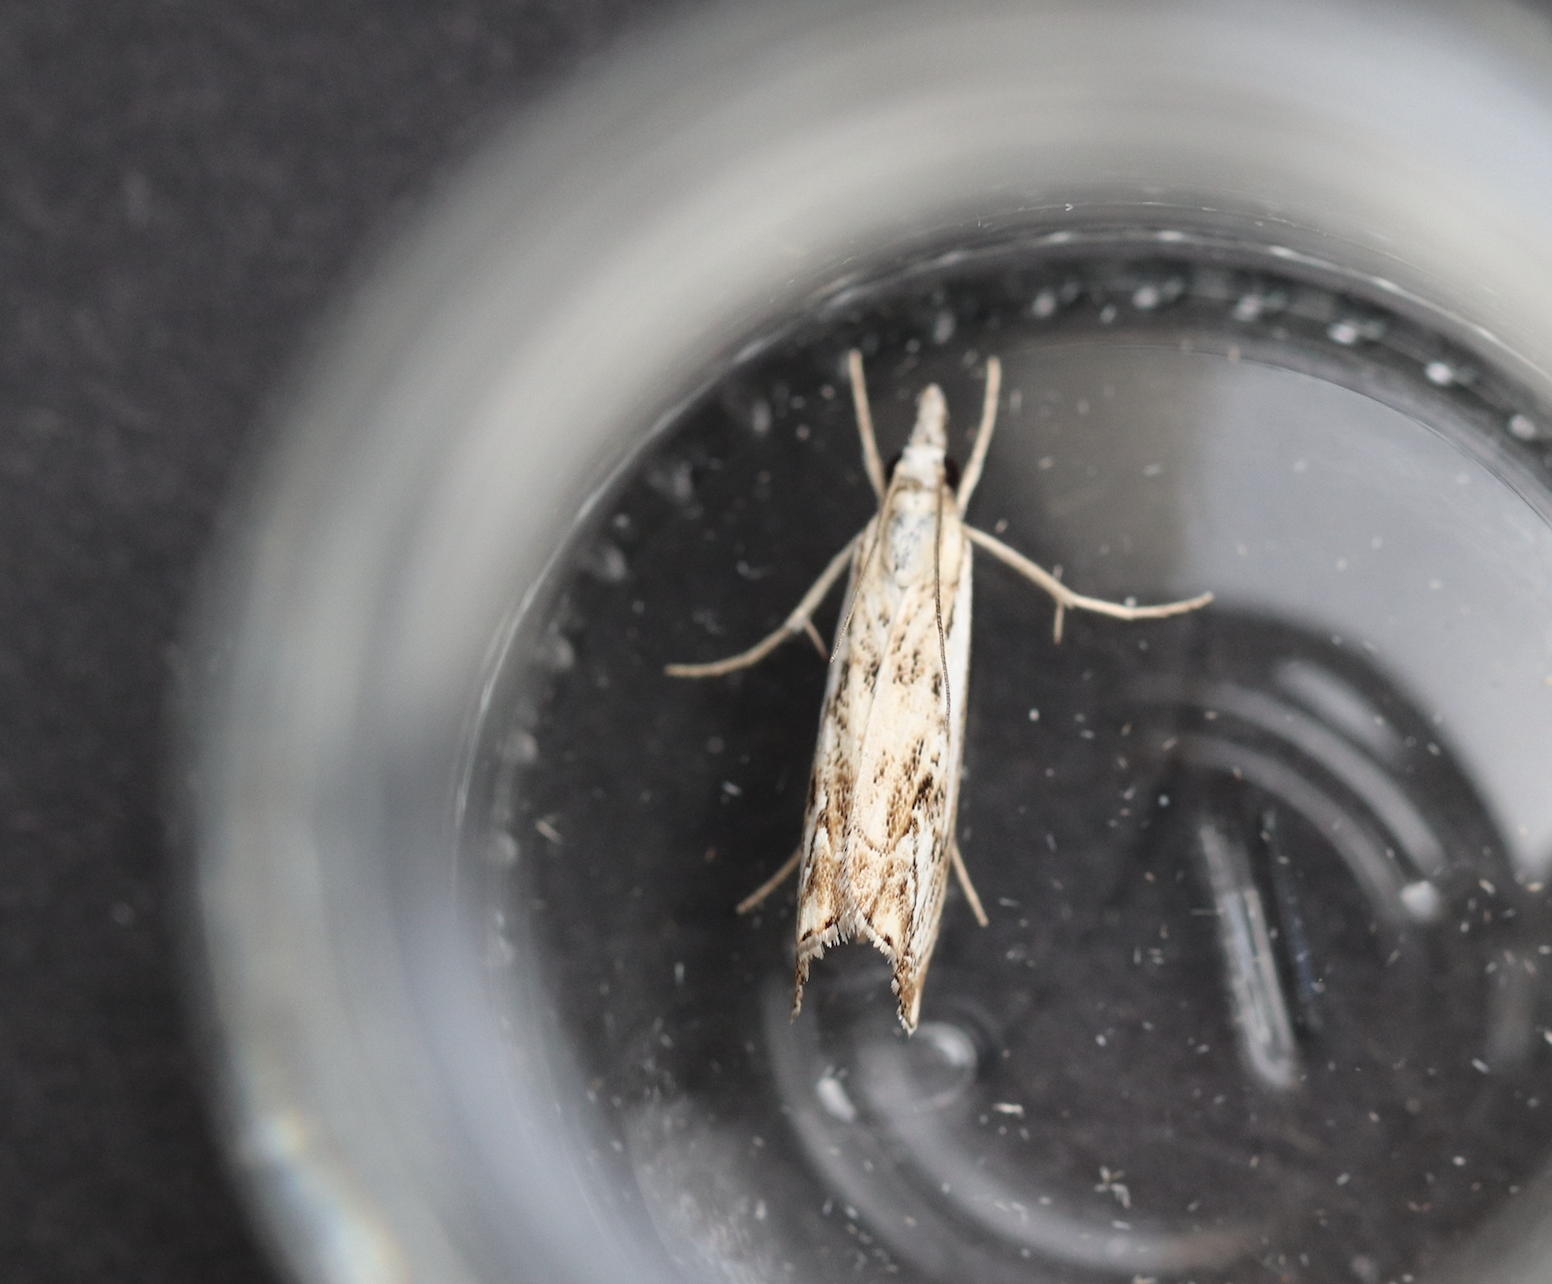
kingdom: Animalia
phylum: Arthropoda
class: Insecta
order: Lepidoptera
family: Crambidae
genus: Catoptria
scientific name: Catoptria falsella
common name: Chequered grass-veneer
